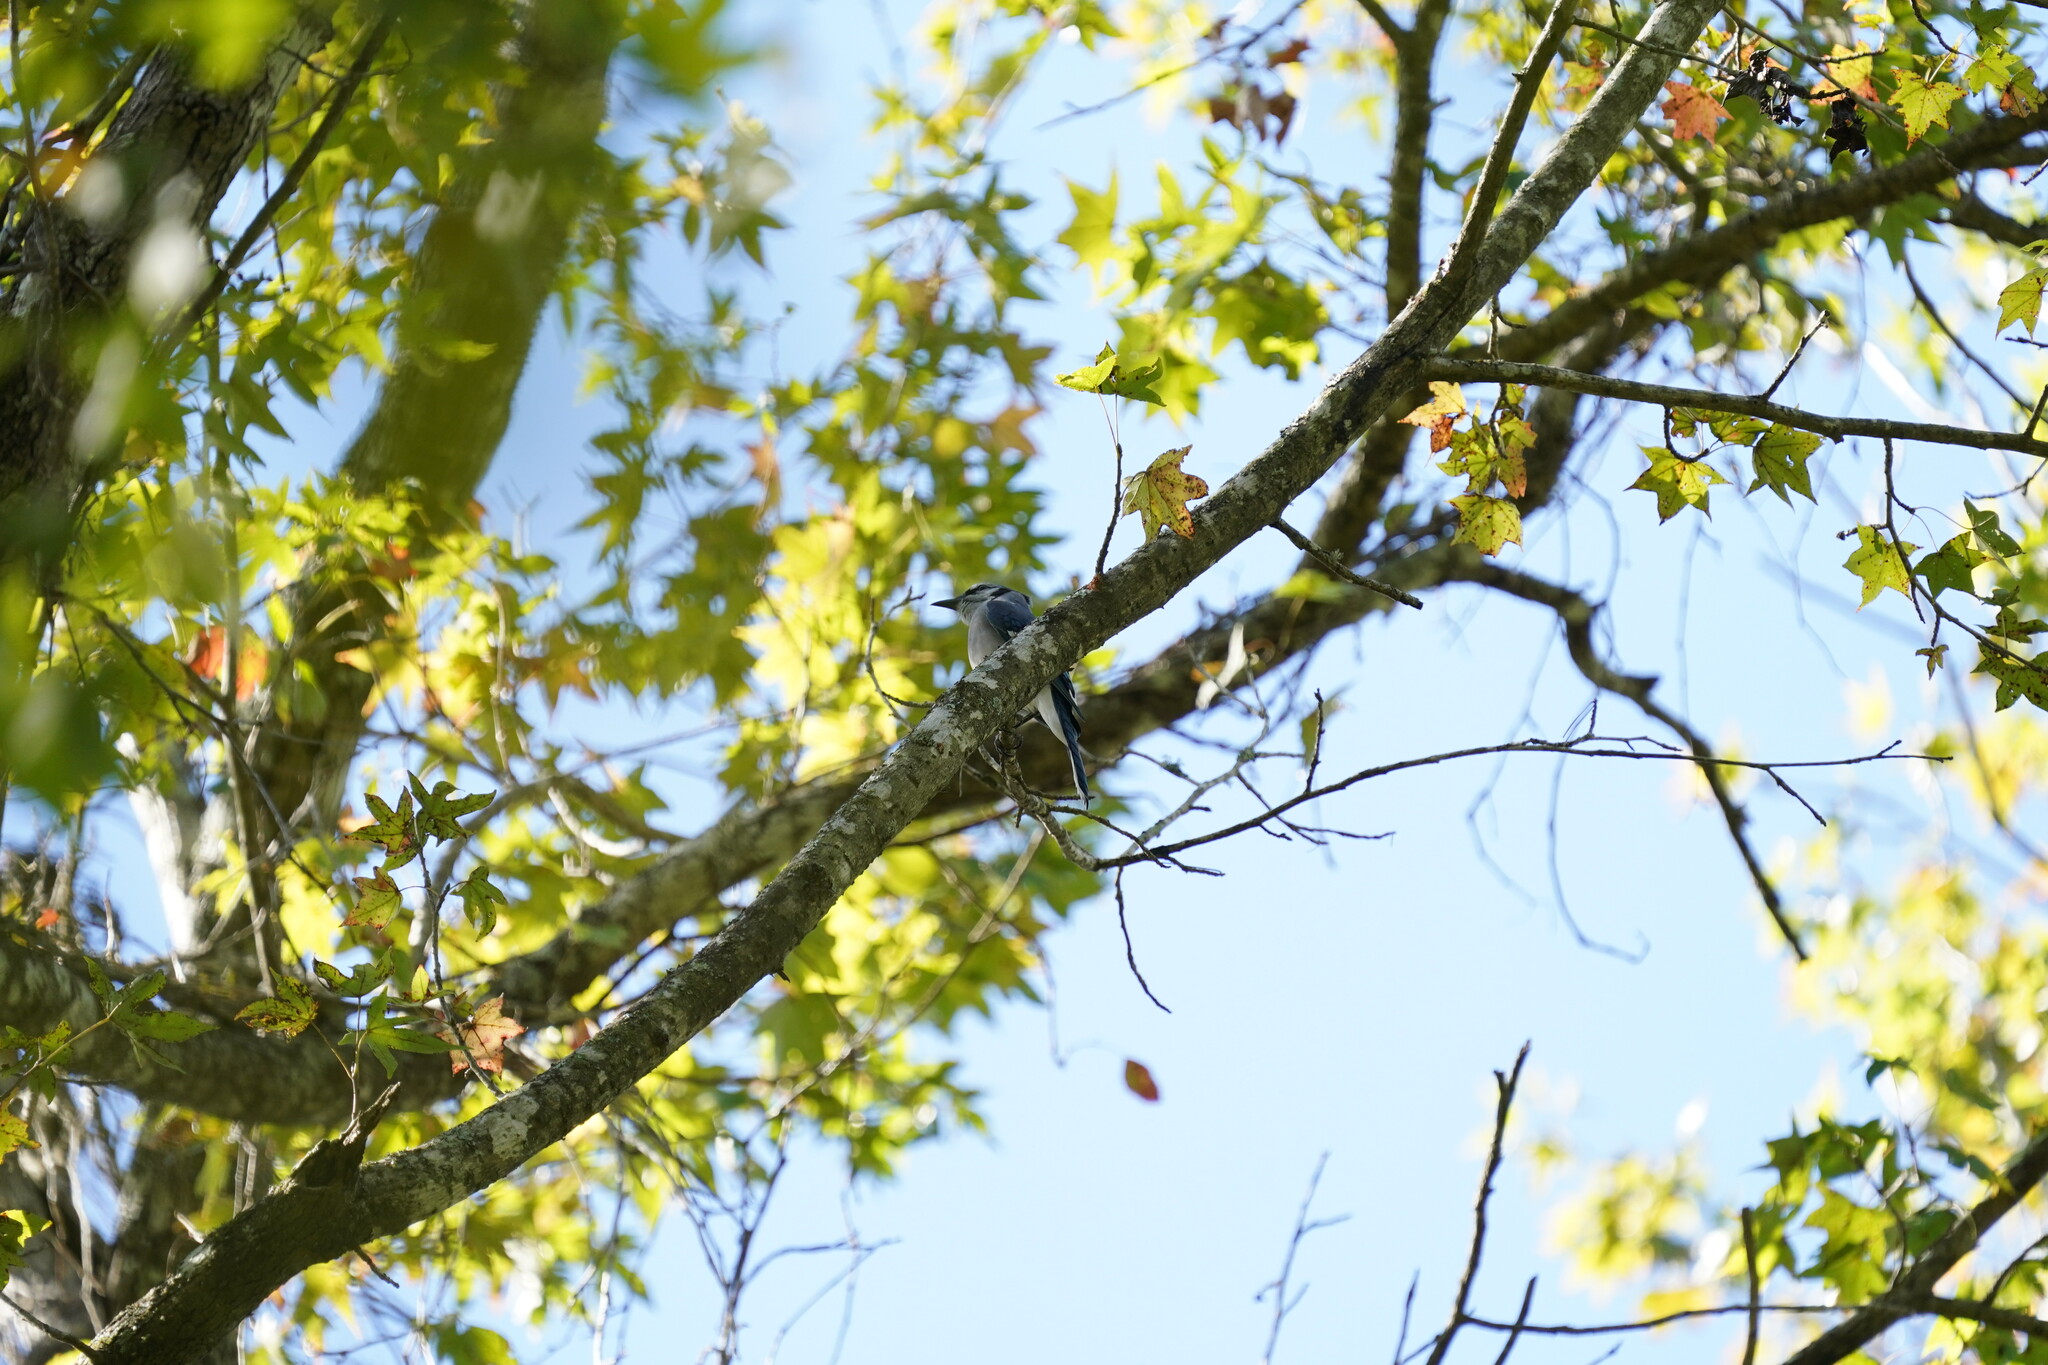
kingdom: Animalia
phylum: Chordata
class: Aves
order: Passeriformes
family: Corvidae
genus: Cyanocitta
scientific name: Cyanocitta cristata
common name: Blue jay
